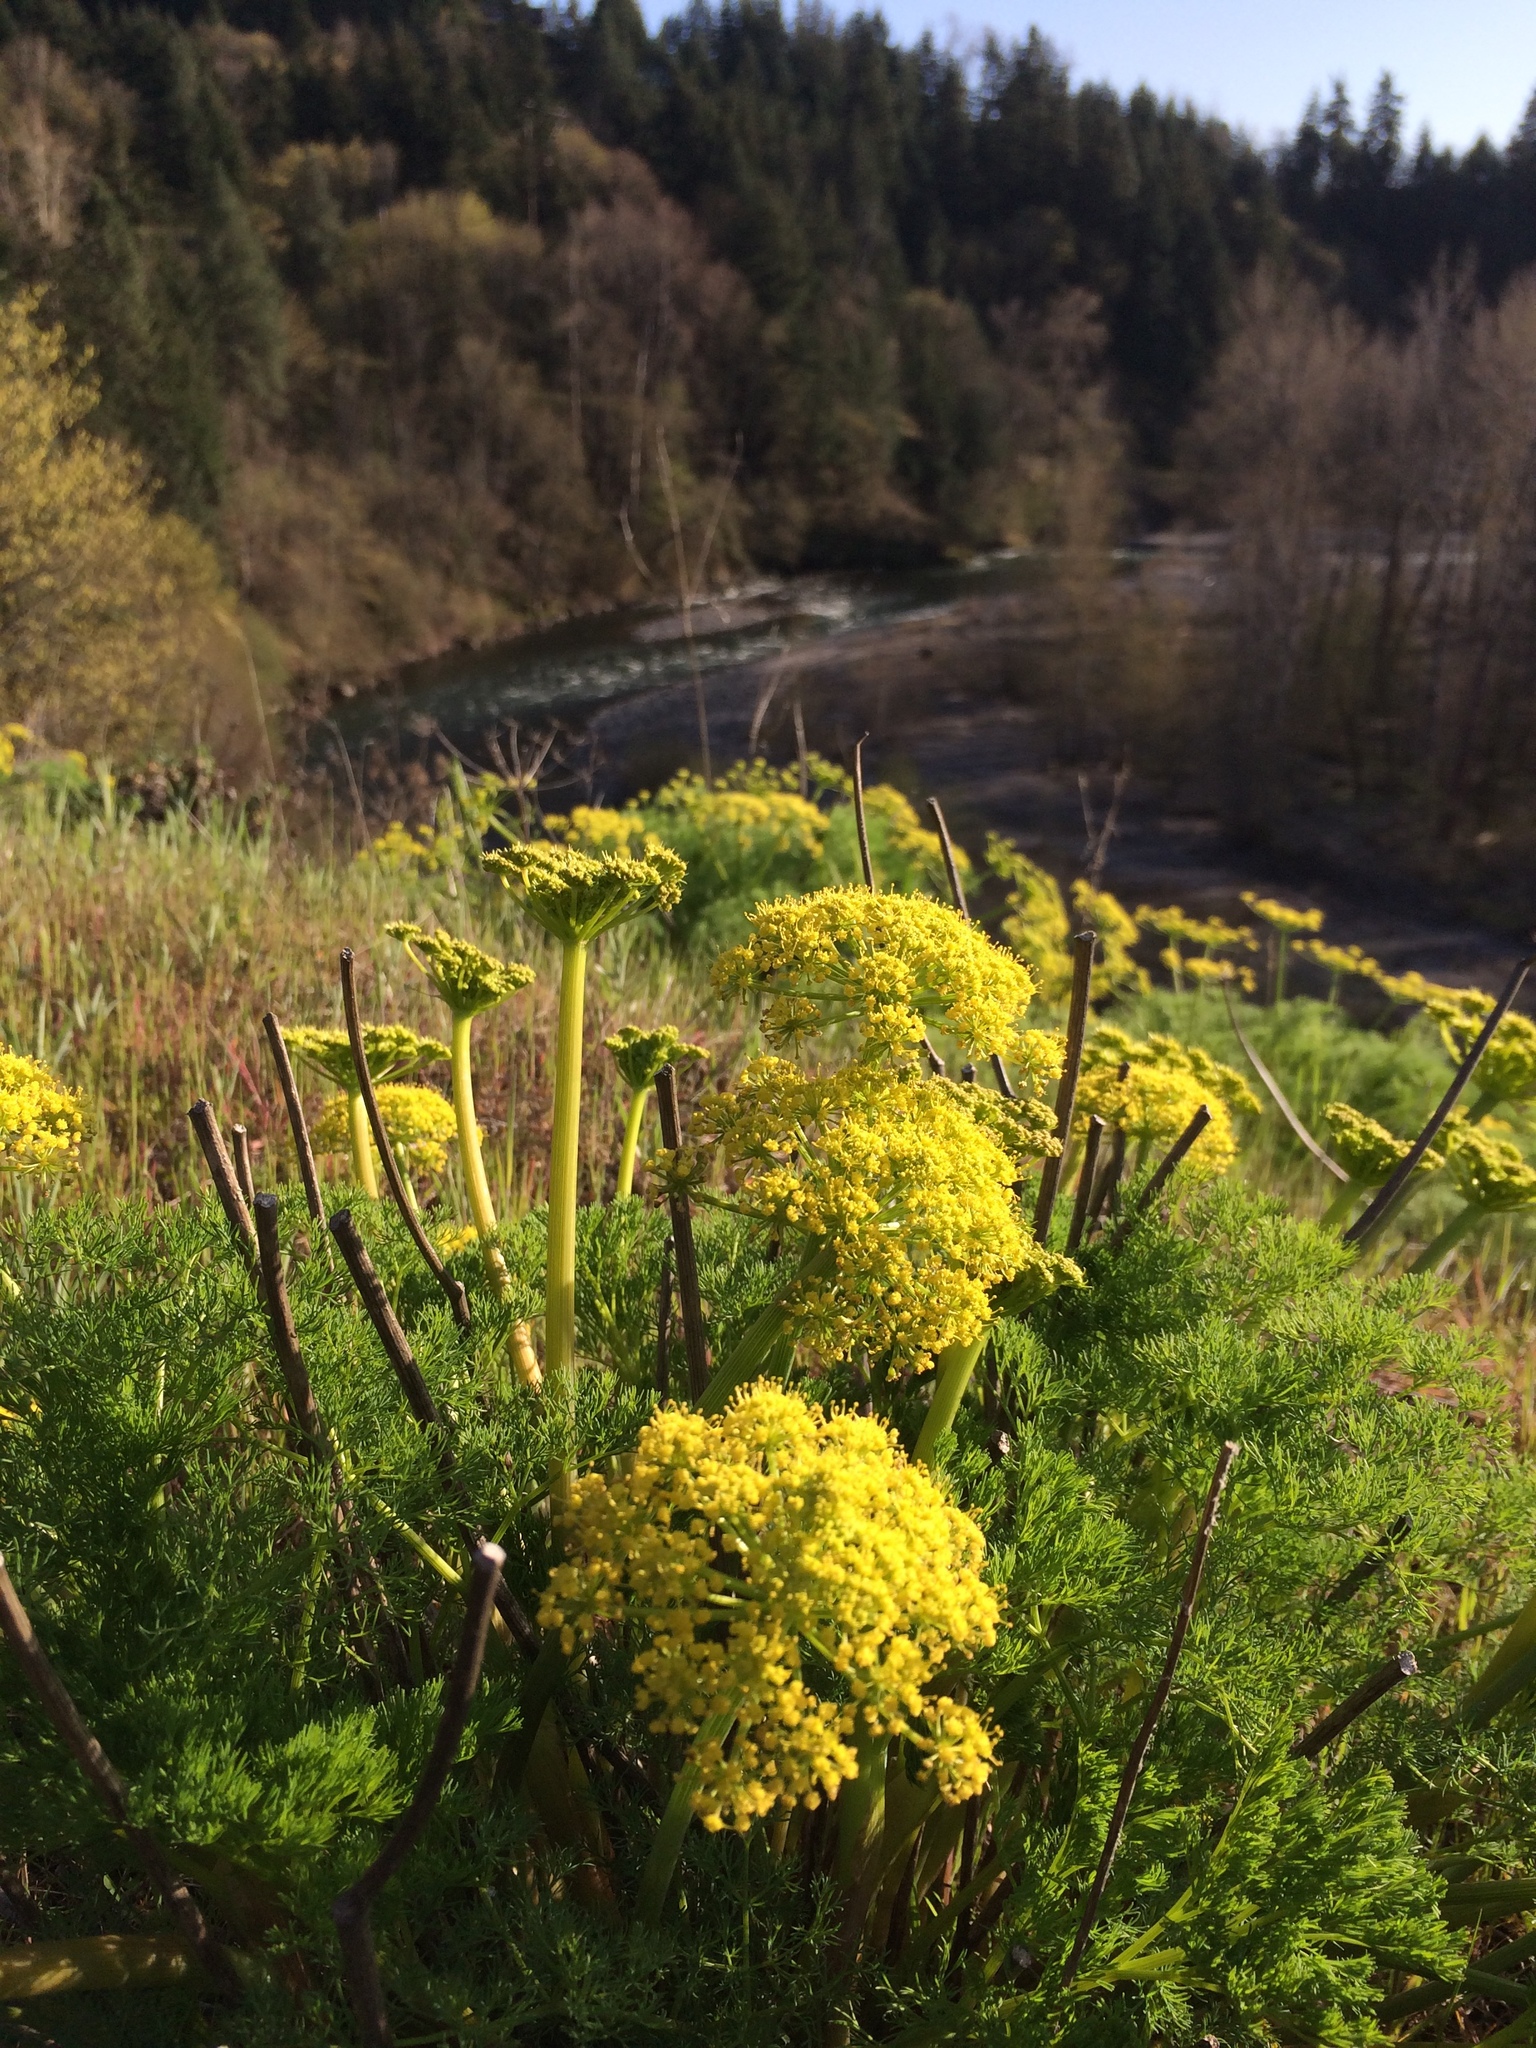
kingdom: Plantae
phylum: Tracheophyta
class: Magnoliopsida
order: Apiales
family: Apiaceae
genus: Foeniculum
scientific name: Foeniculum vulgare
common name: Fennel
